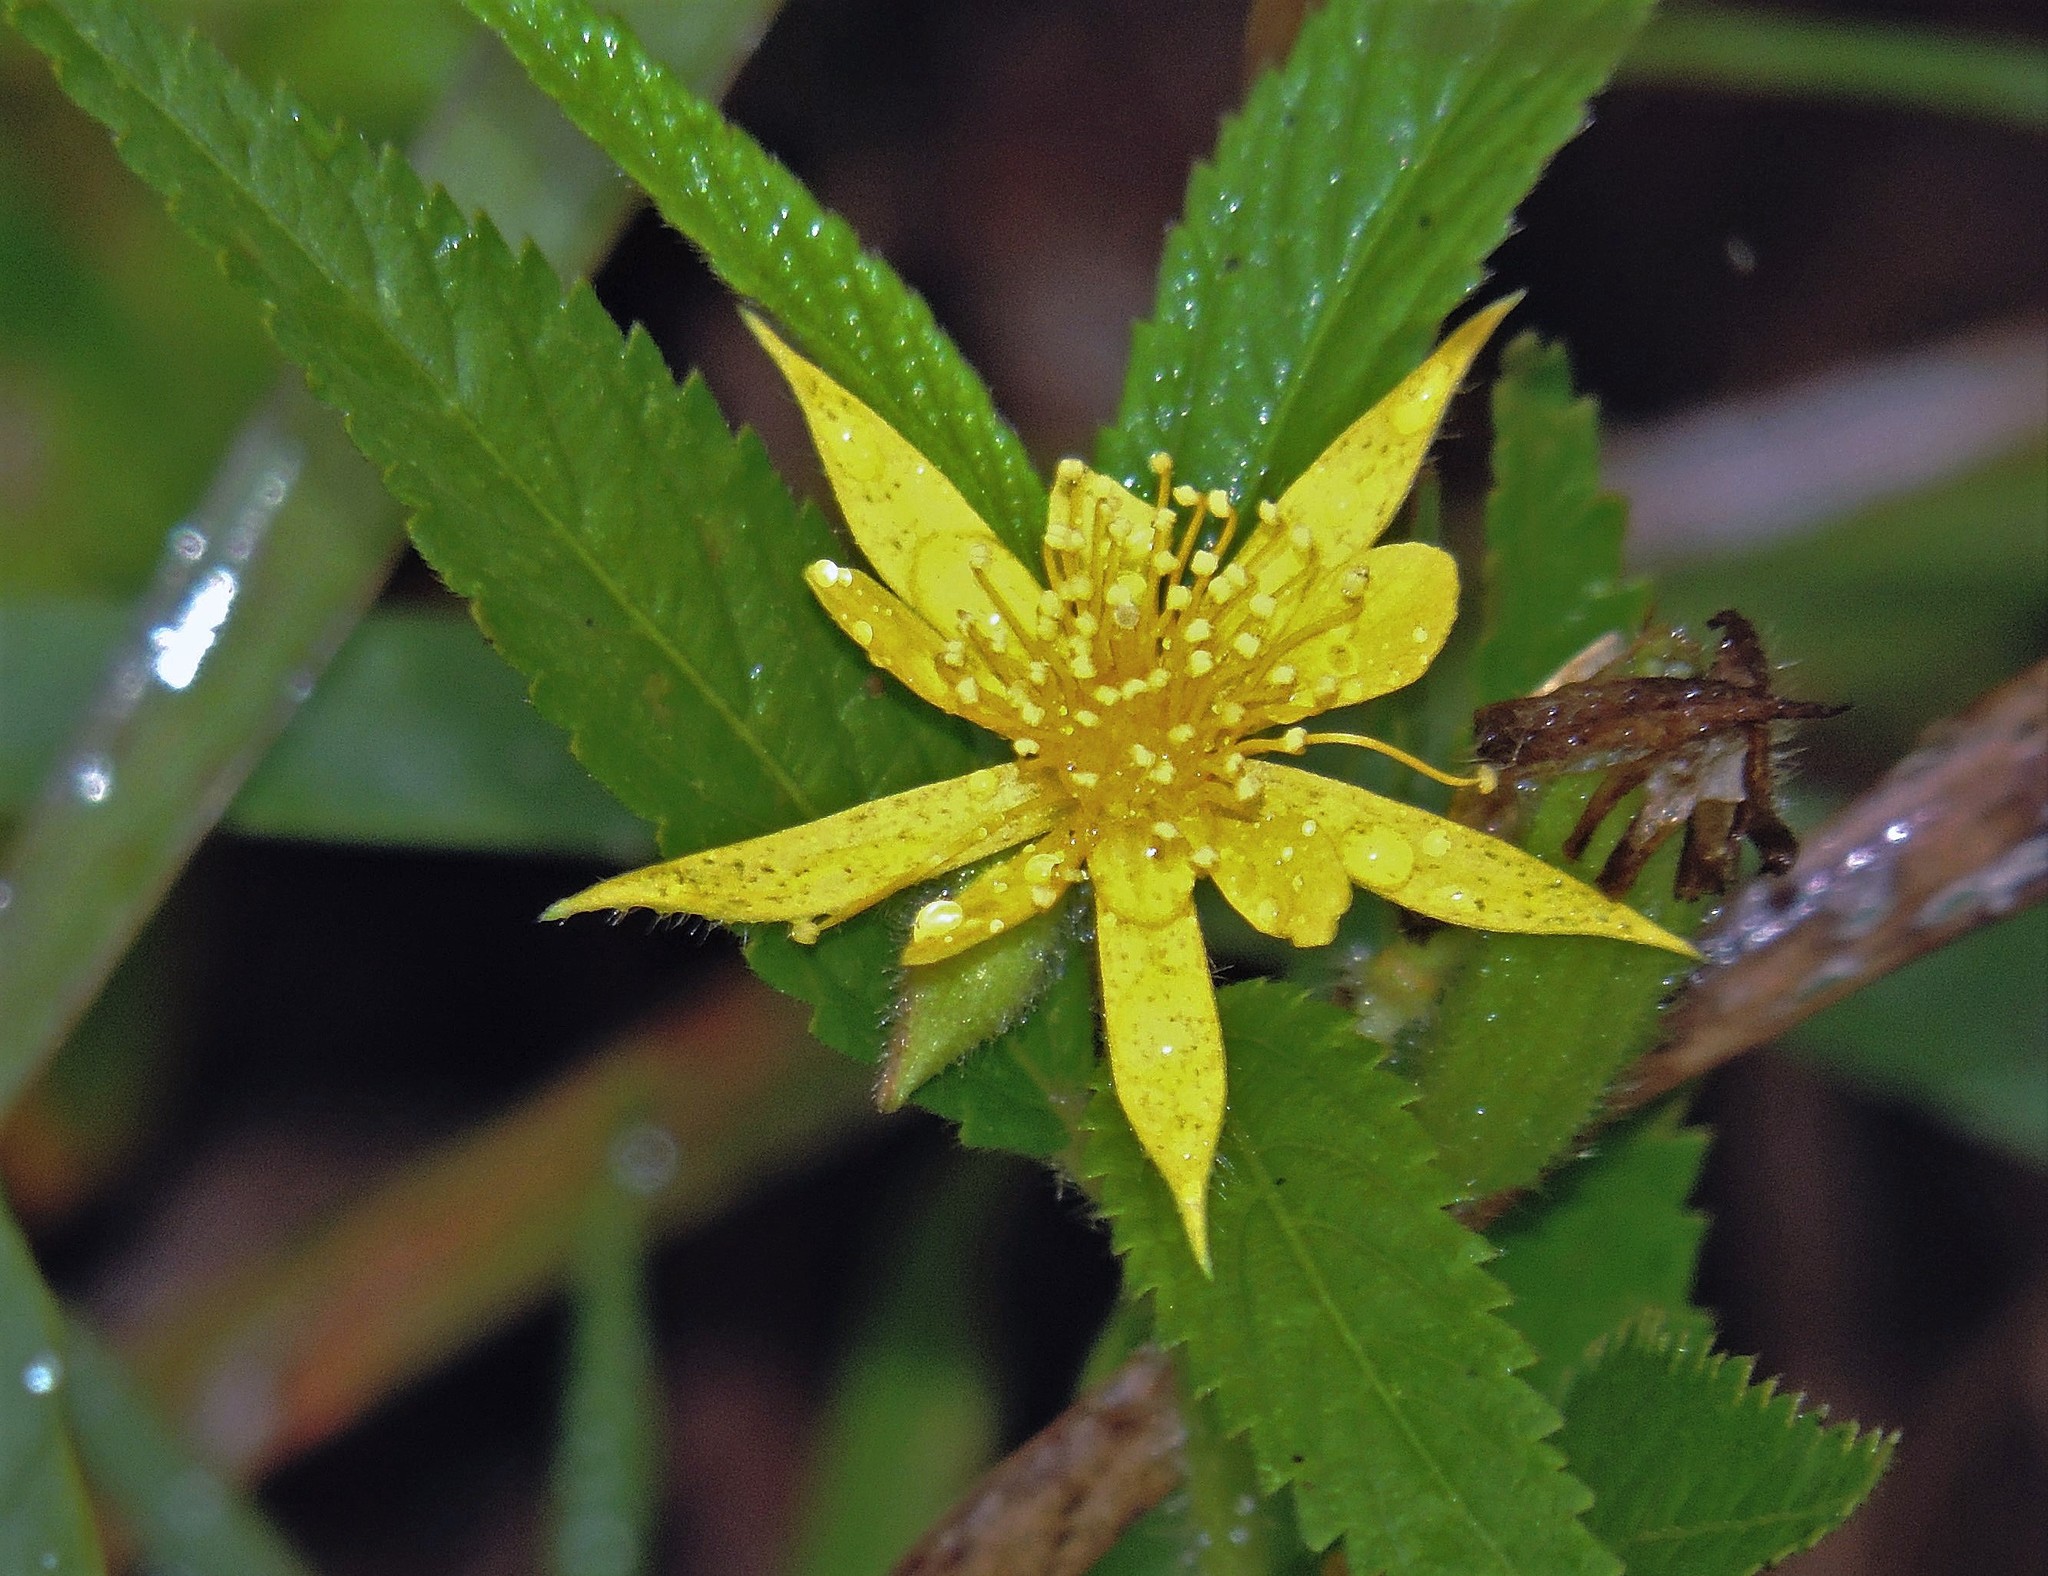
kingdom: Plantae
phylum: Tracheophyta
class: Magnoliopsida
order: Malvales
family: Malvaceae
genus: Corchorus
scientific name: Corchorus argutus
